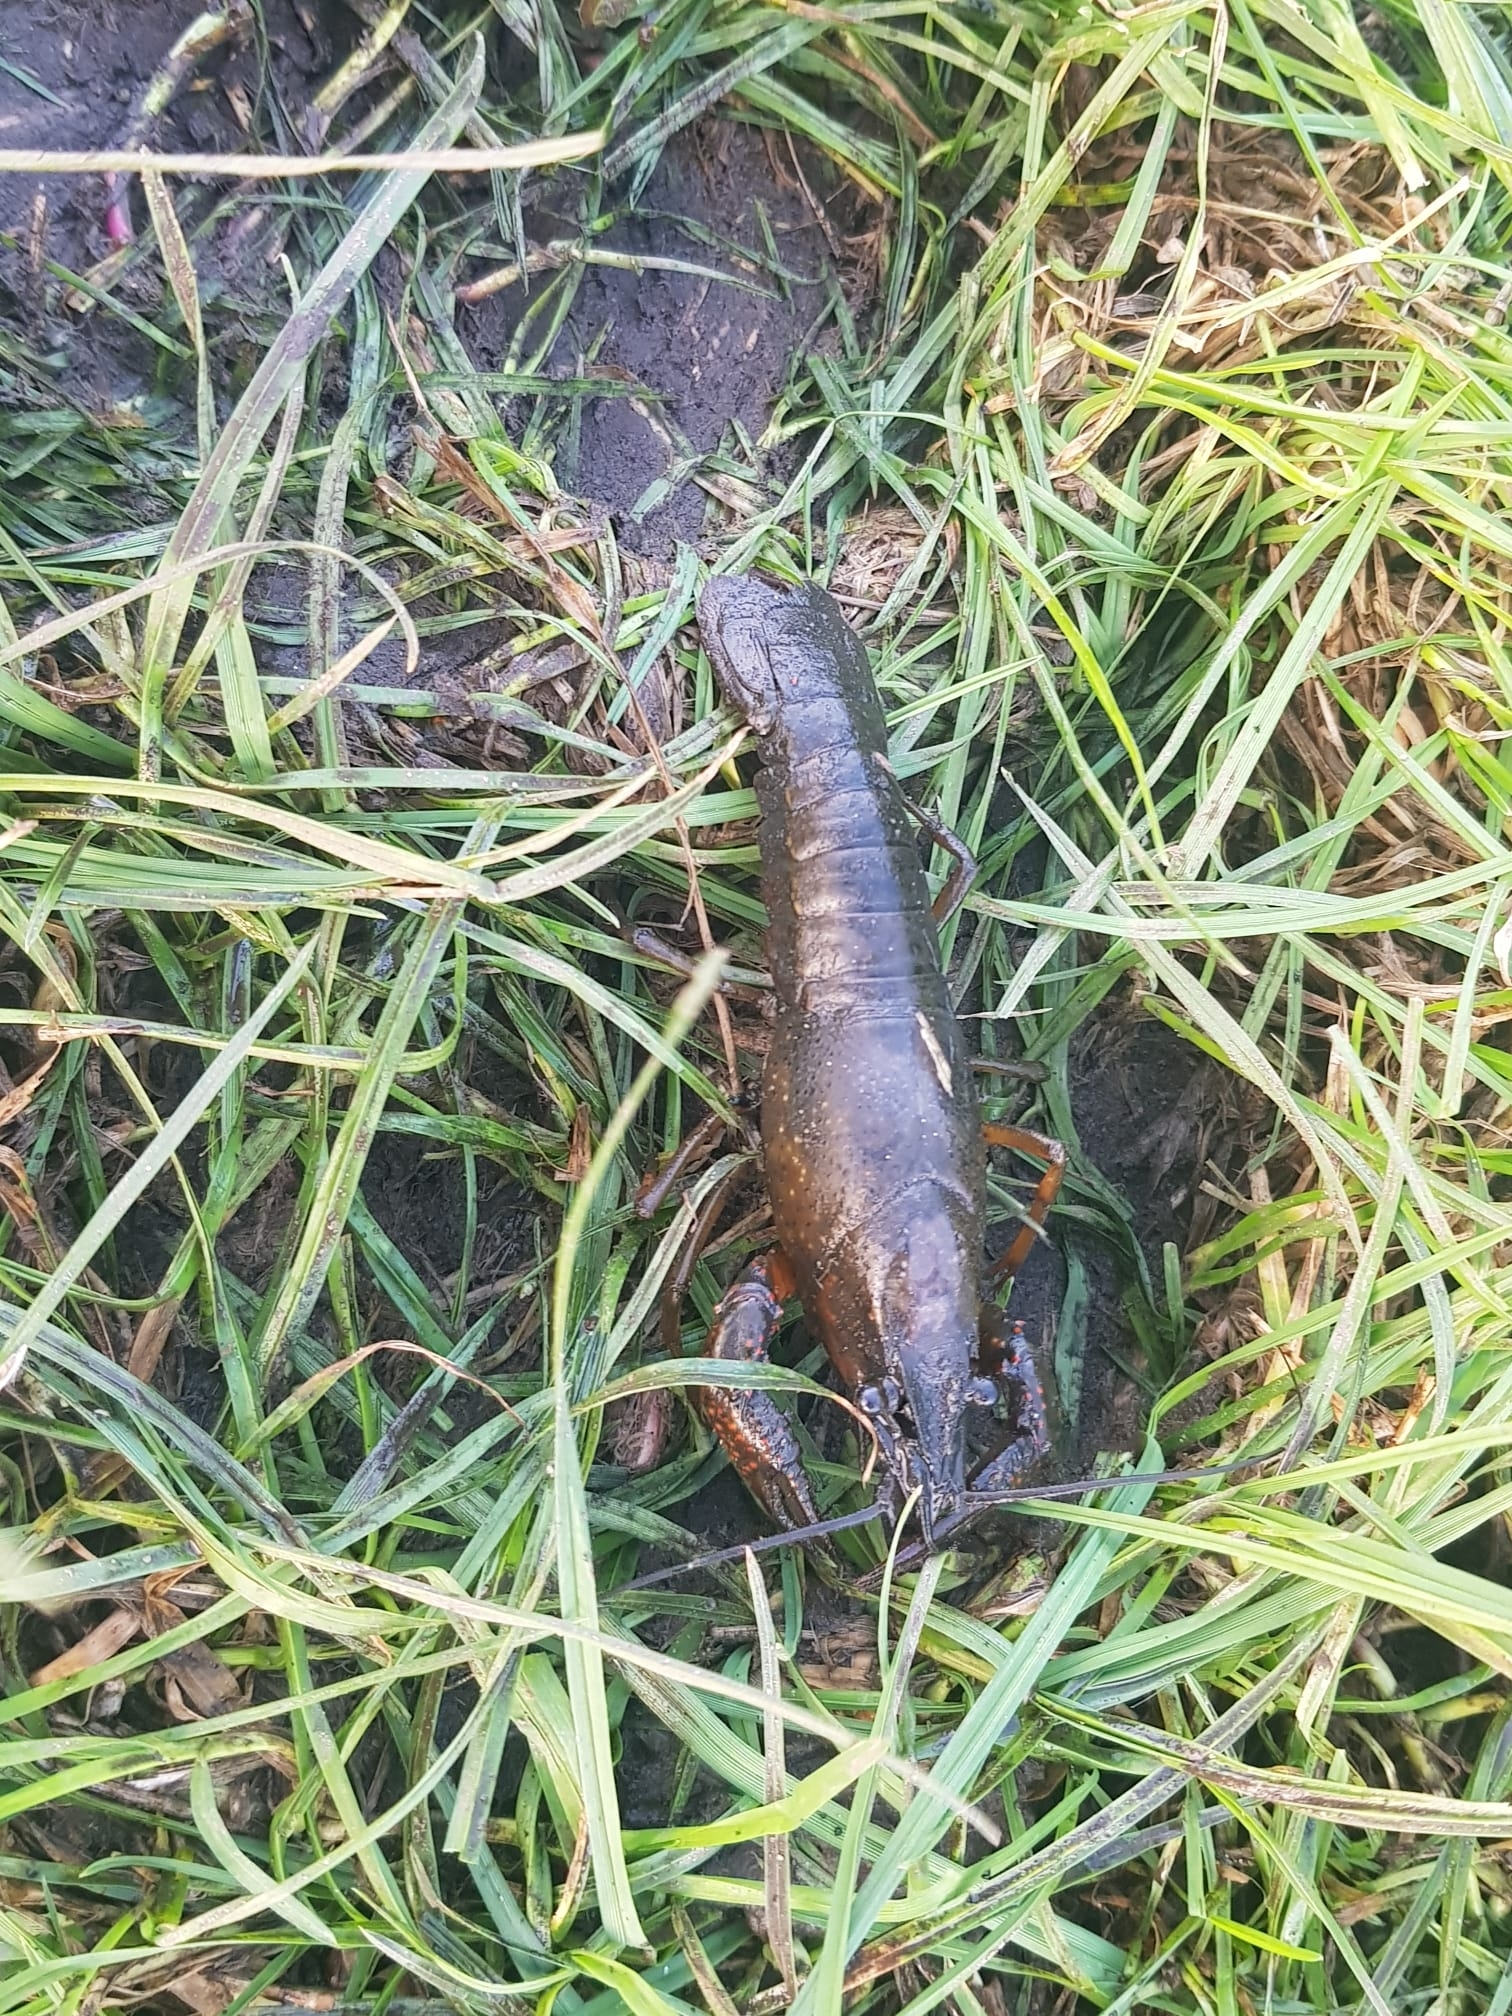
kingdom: Animalia
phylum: Arthropoda
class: Malacostraca
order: Decapoda
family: Cambaridae
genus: Procambarus
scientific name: Procambarus clarkii
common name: Red swamp crayfish
